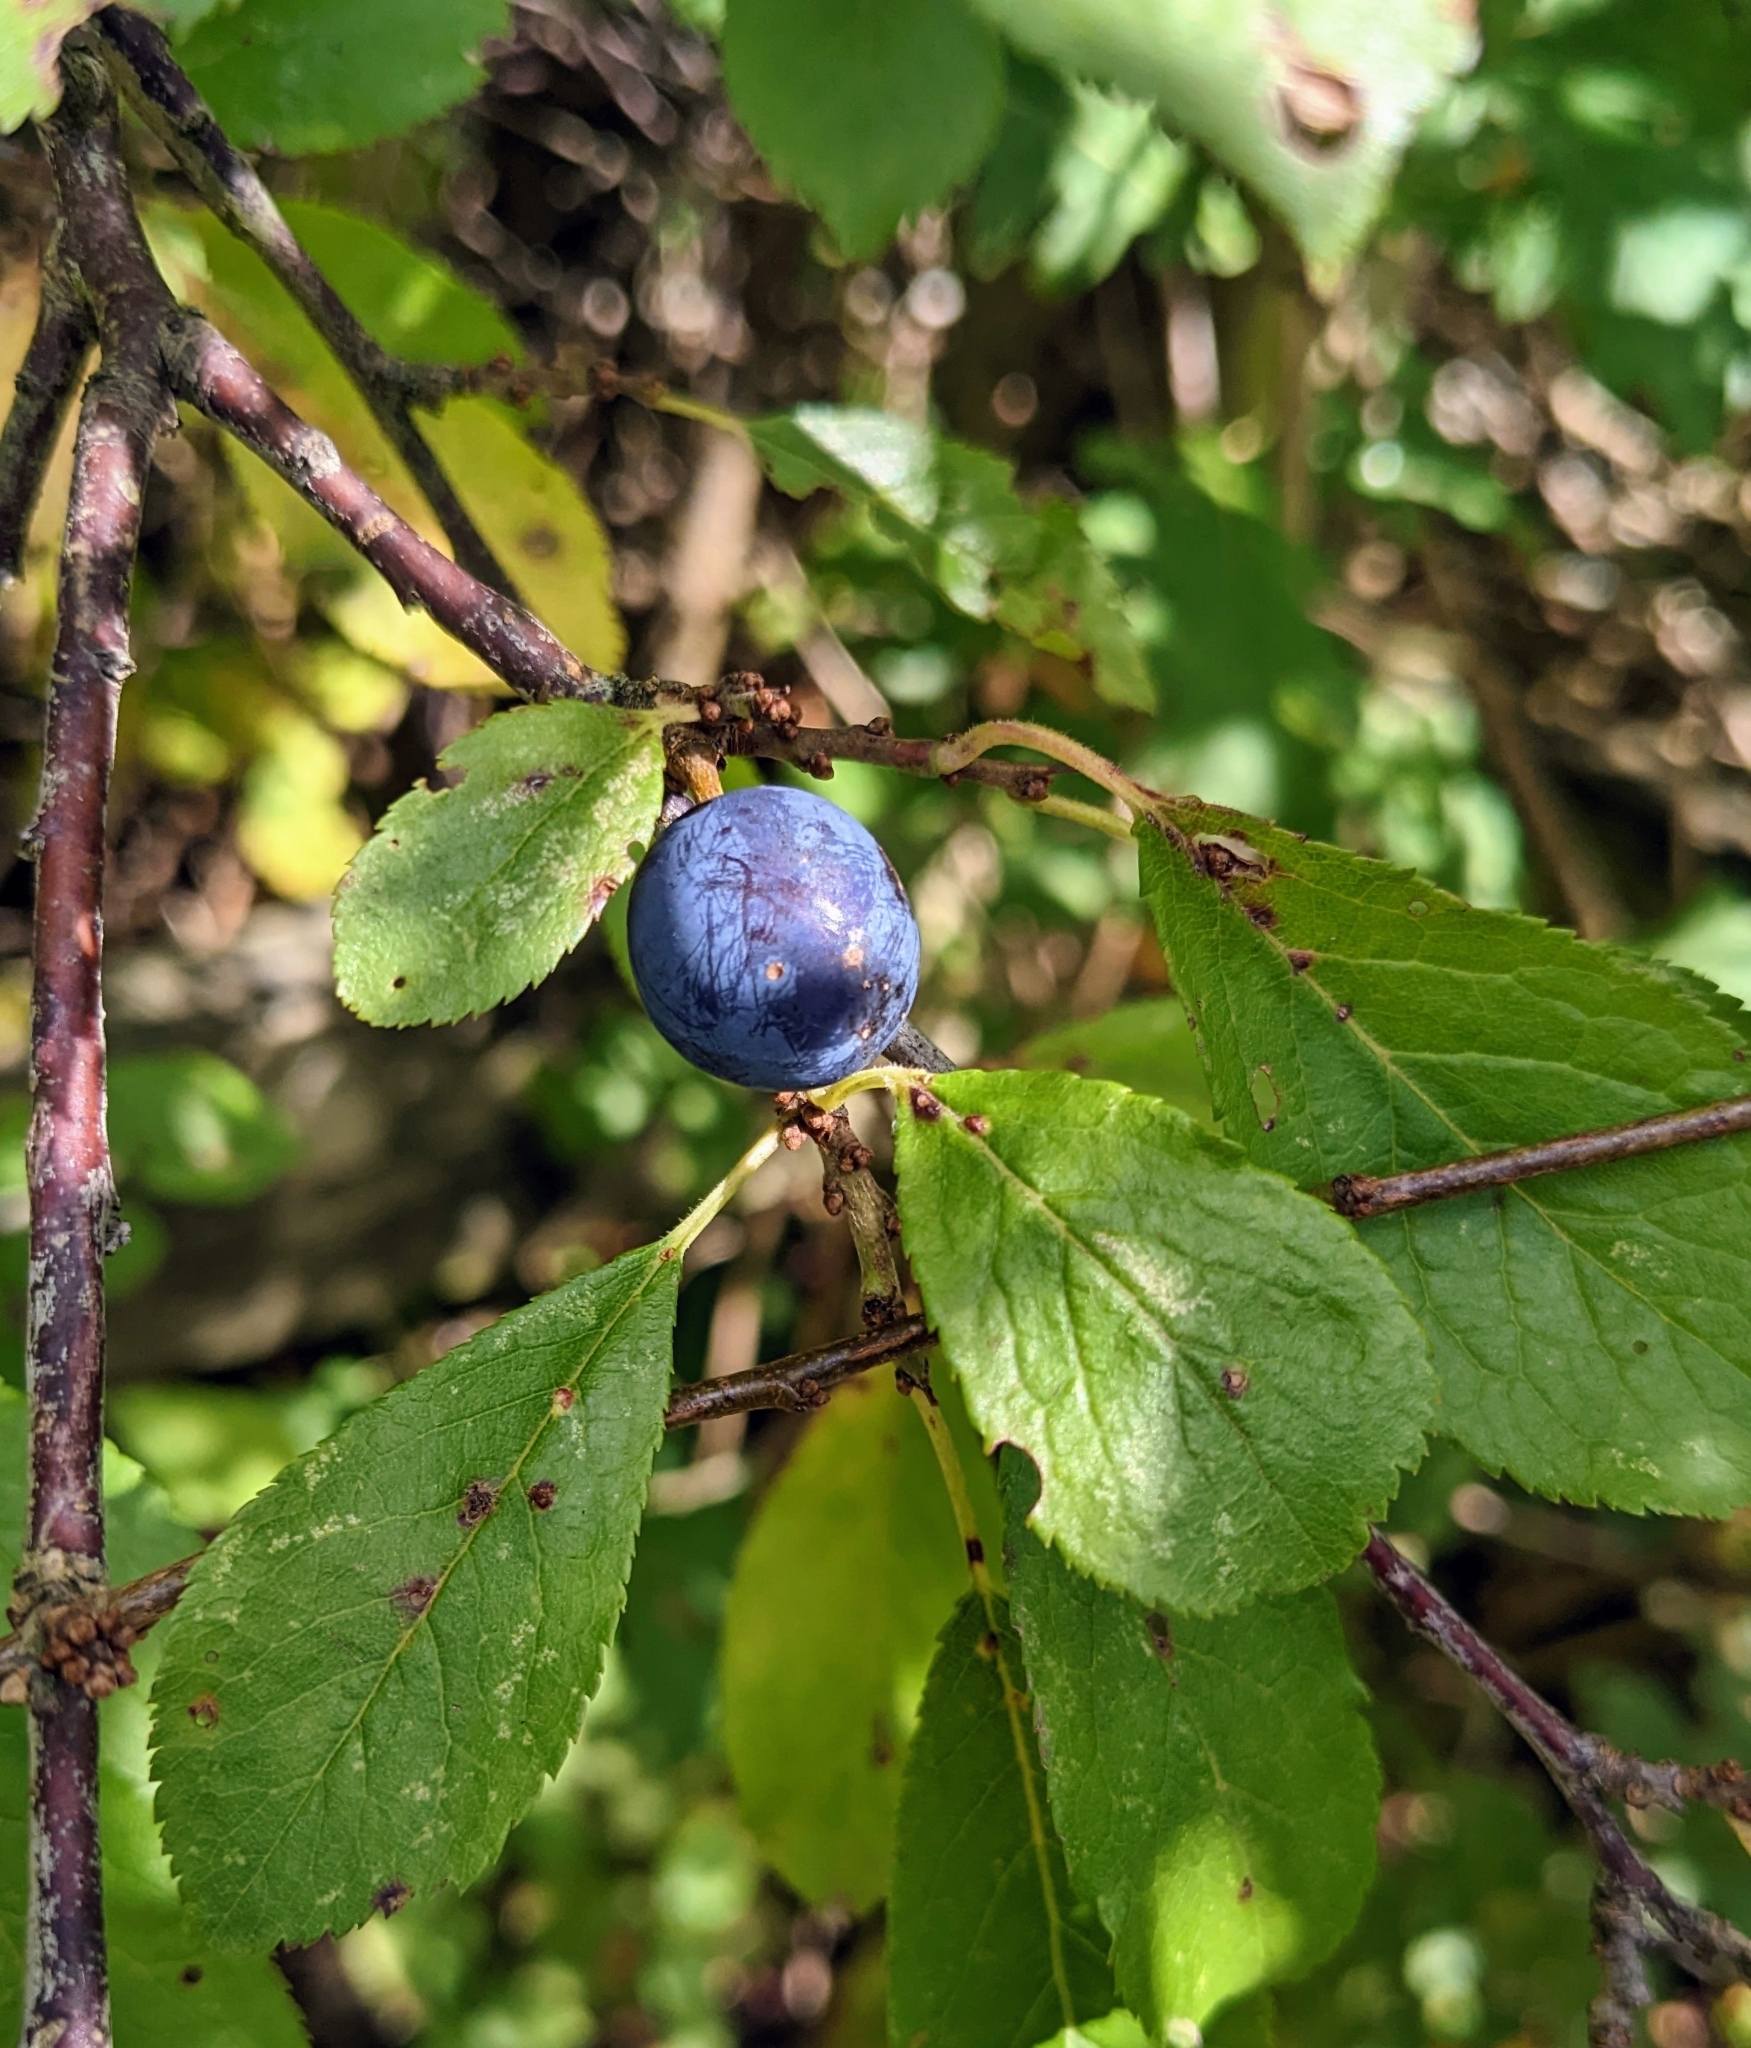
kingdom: Plantae
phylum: Tracheophyta
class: Magnoliopsida
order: Rosales
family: Rosaceae
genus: Prunus
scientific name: Prunus spinosa
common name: Blackthorn
